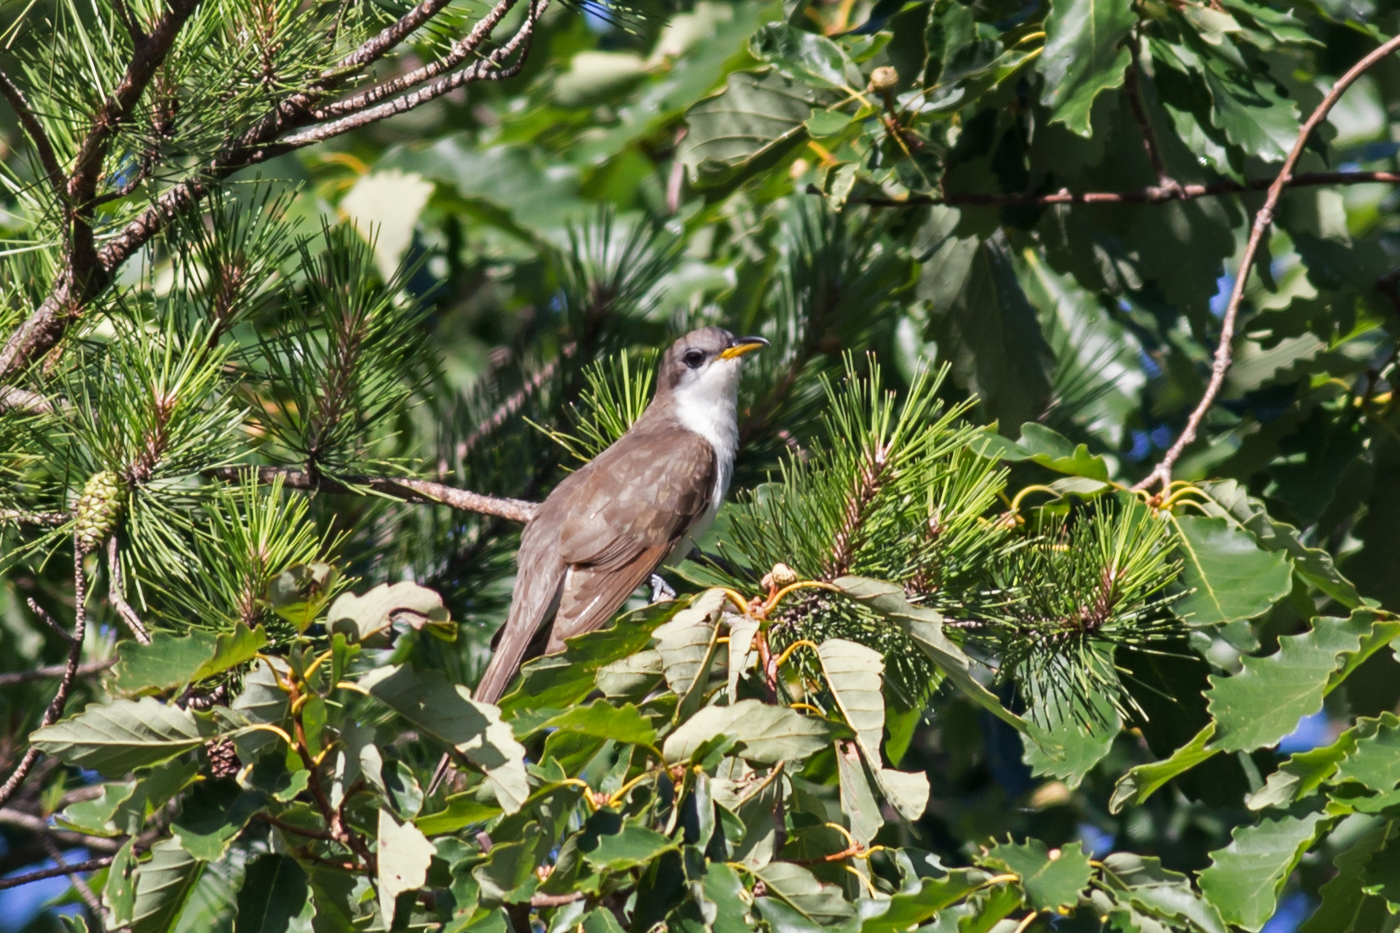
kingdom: Animalia
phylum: Chordata
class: Aves
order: Cuculiformes
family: Cuculidae
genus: Coccyzus
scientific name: Coccyzus americanus
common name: Yellow-billed cuckoo
